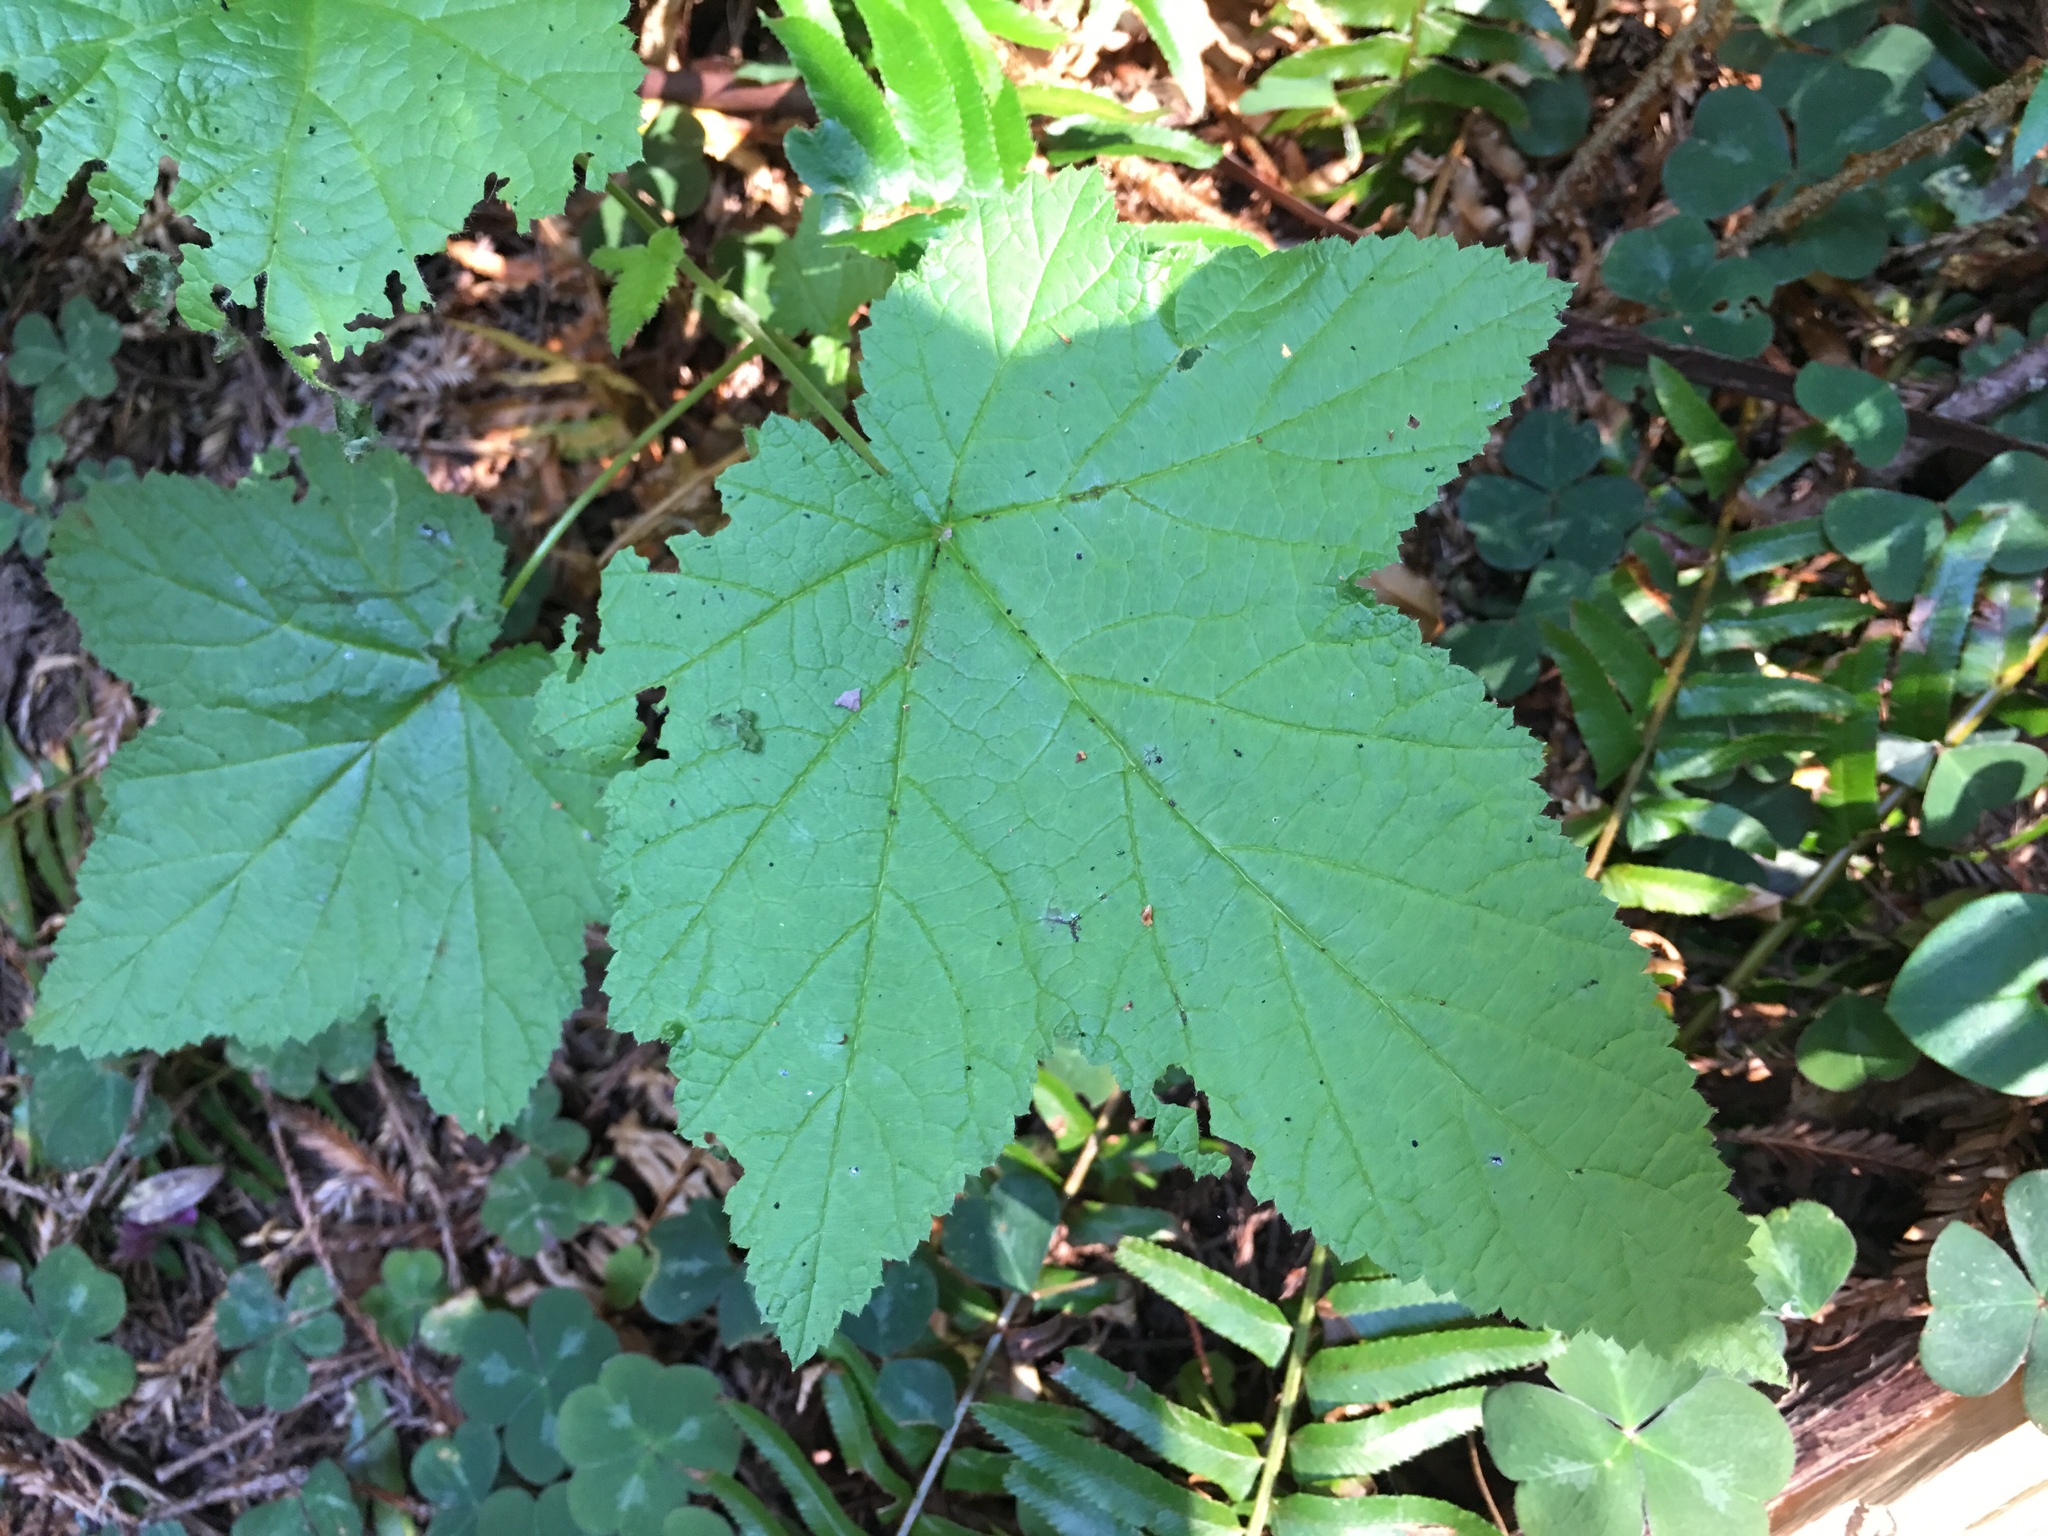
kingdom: Plantae
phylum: Tracheophyta
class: Magnoliopsida
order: Rosales
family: Rosaceae
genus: Rubus
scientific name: Rubus parviflorus
